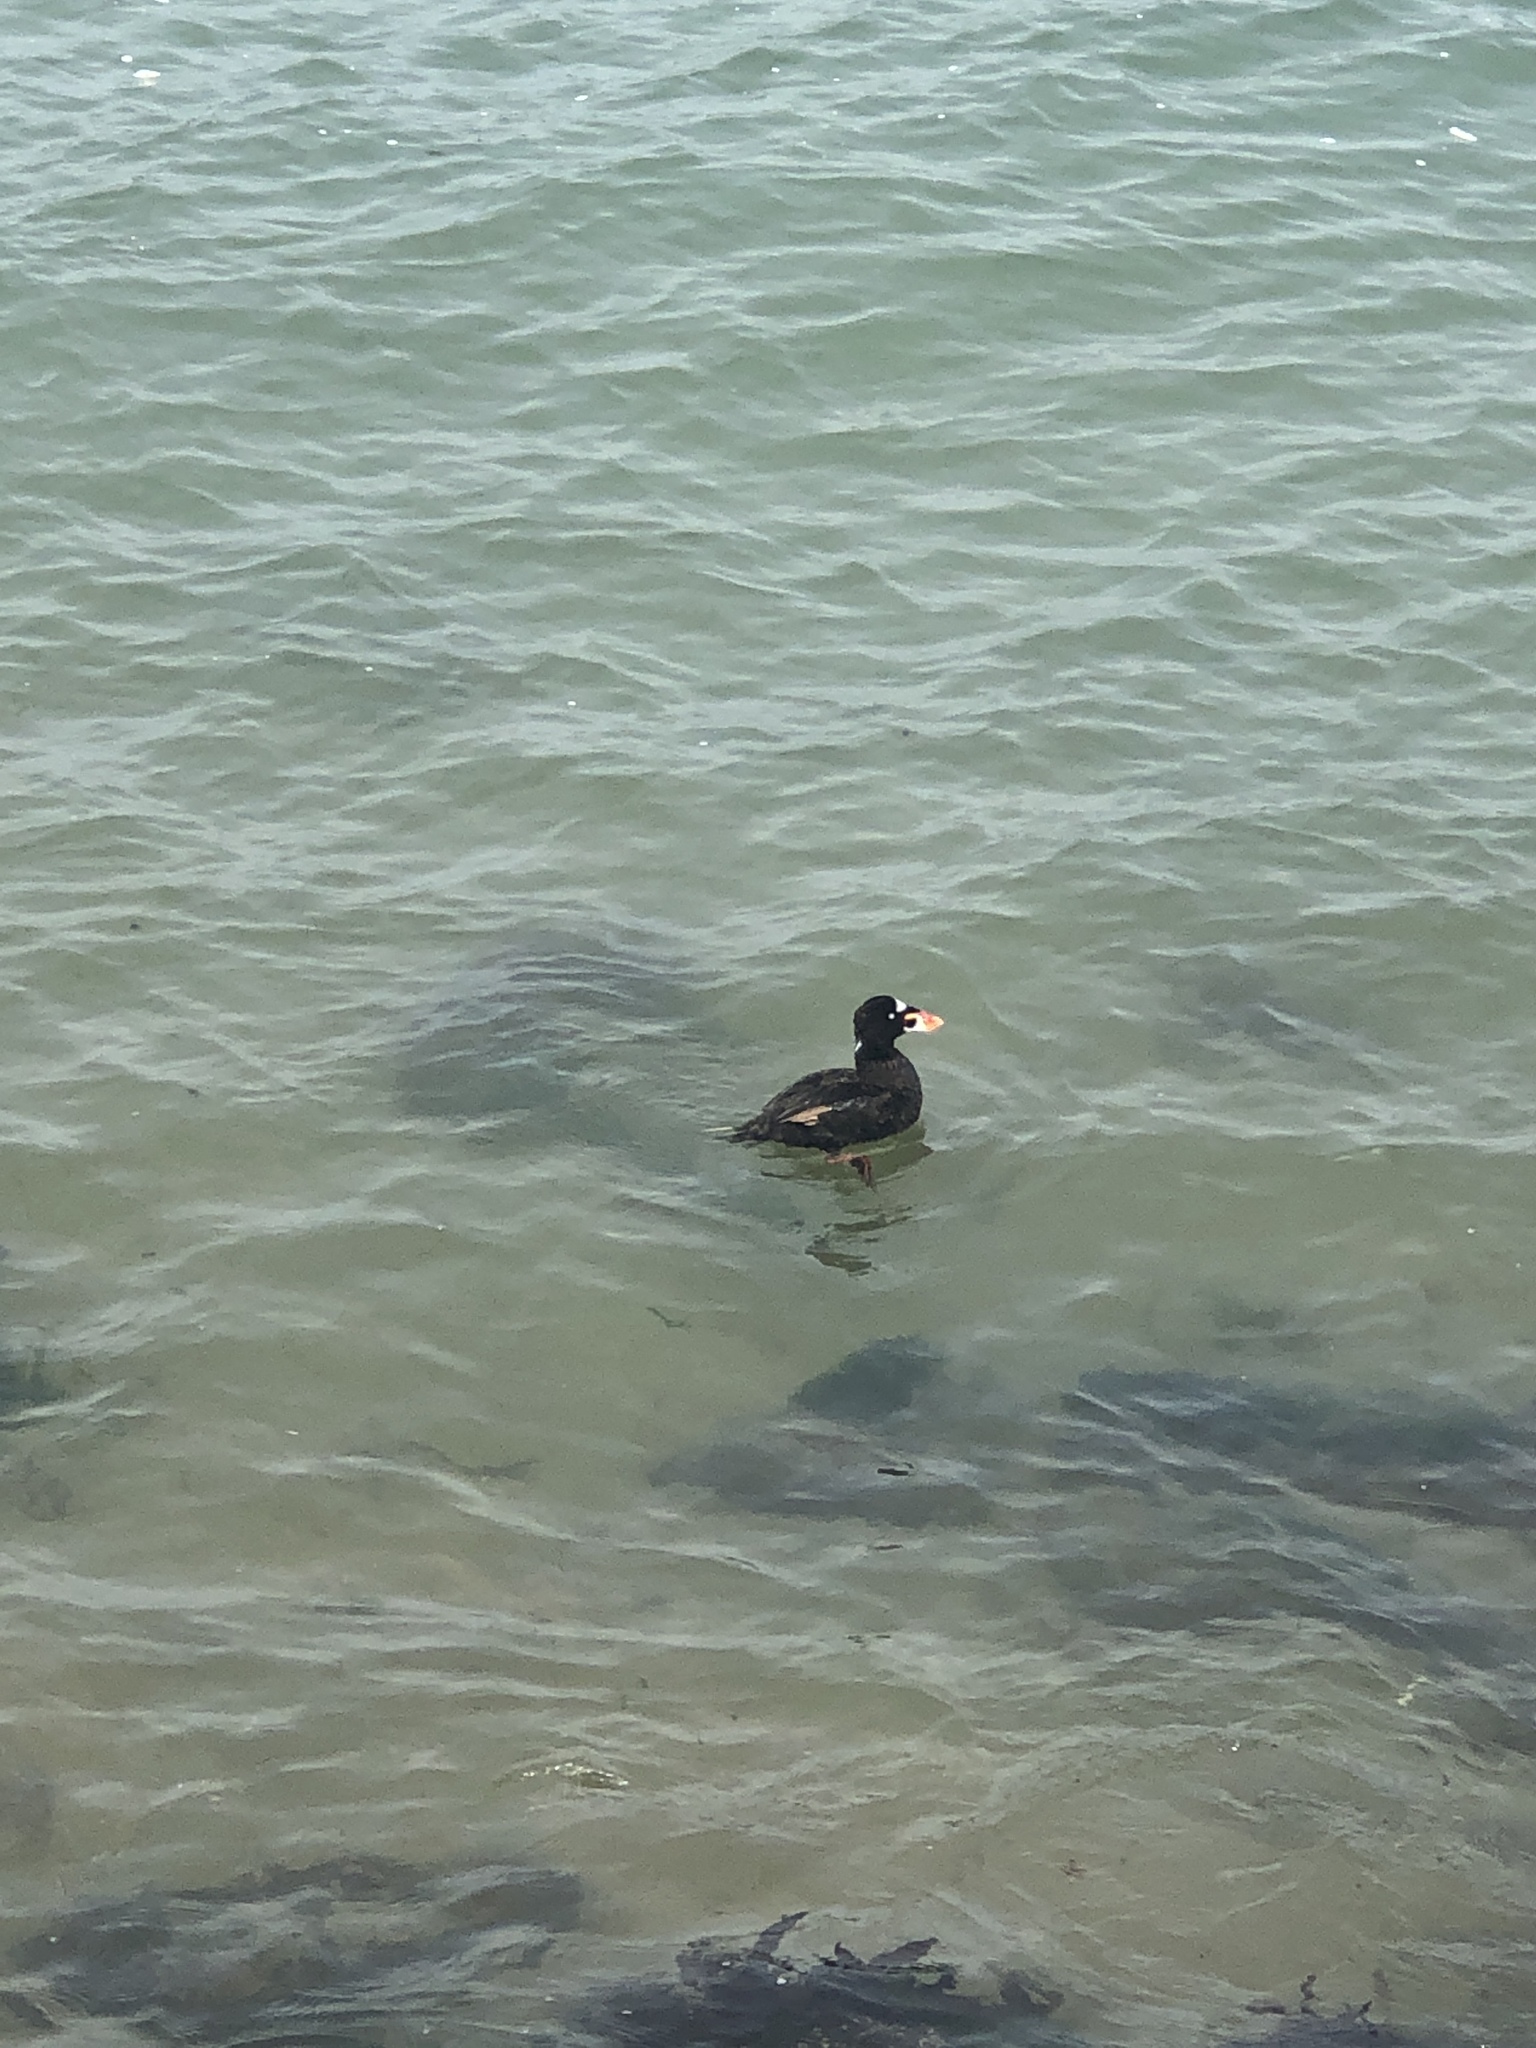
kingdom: Animalia
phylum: Chordata
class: Aves
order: Anseriformes
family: Anatidae
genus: Melanitta
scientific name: Melanitta perspicillata
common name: Surf scoter
